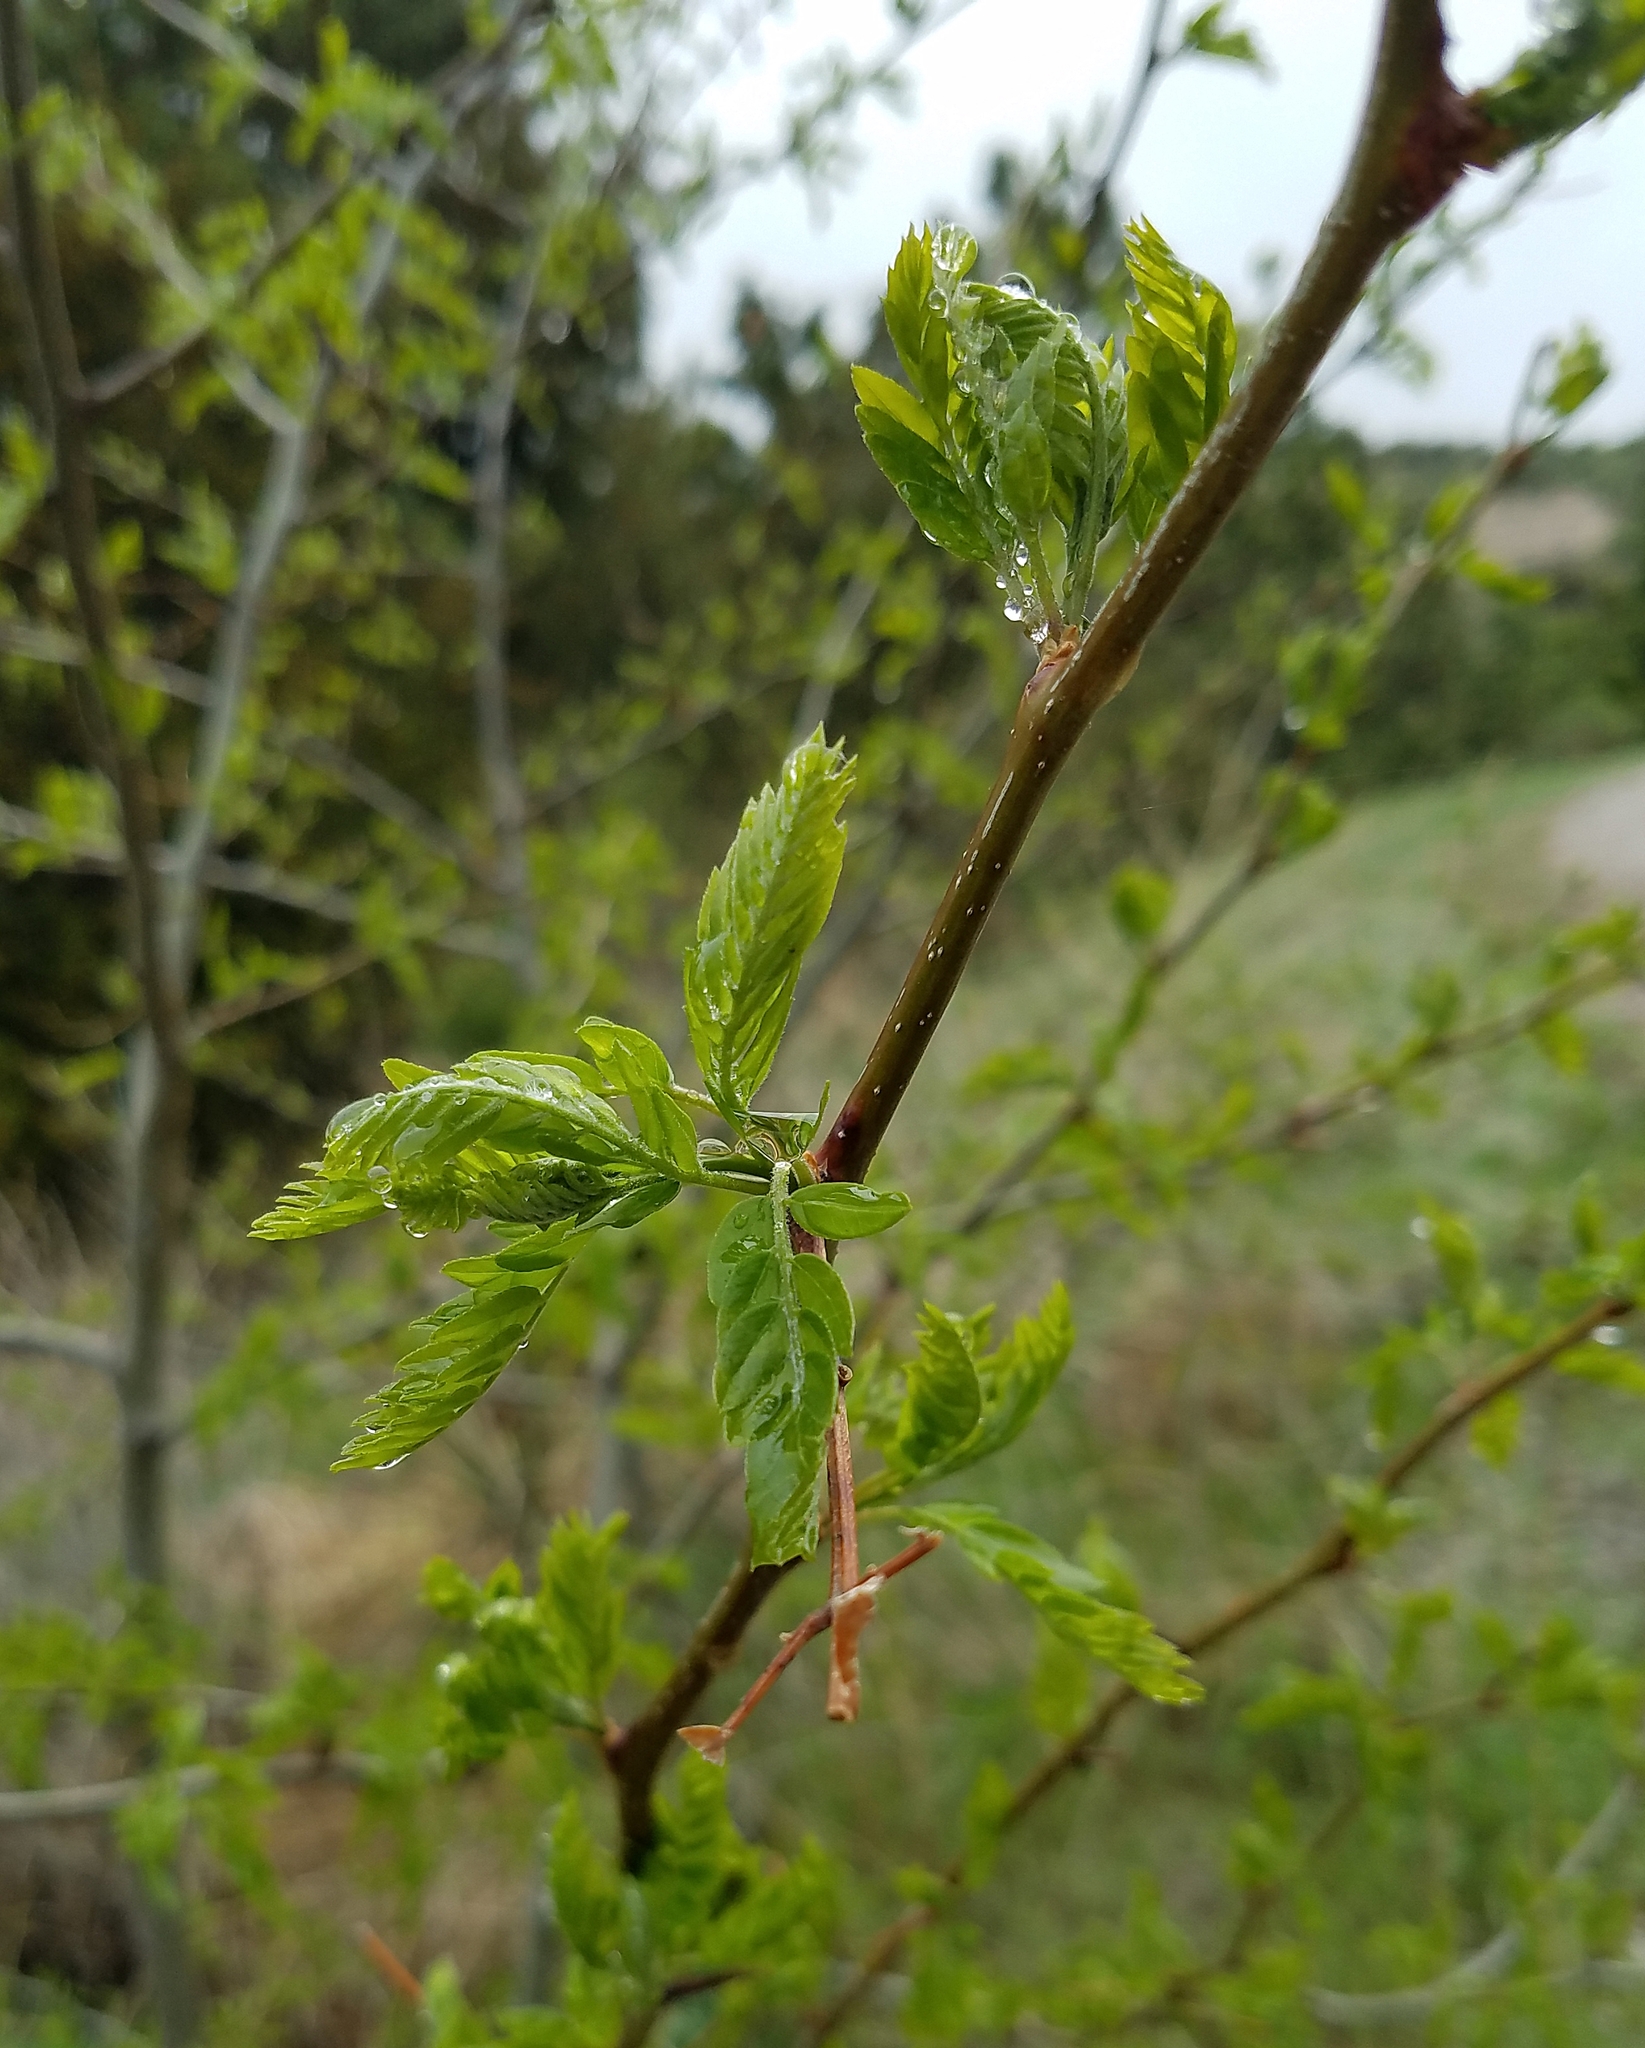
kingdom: Plantae
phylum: Tracheophyta
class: Magnoliopsida
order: Fabales
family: Fabaceae
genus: Gleditsia
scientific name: Gleditsia triacanthos
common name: Common honeylocust
